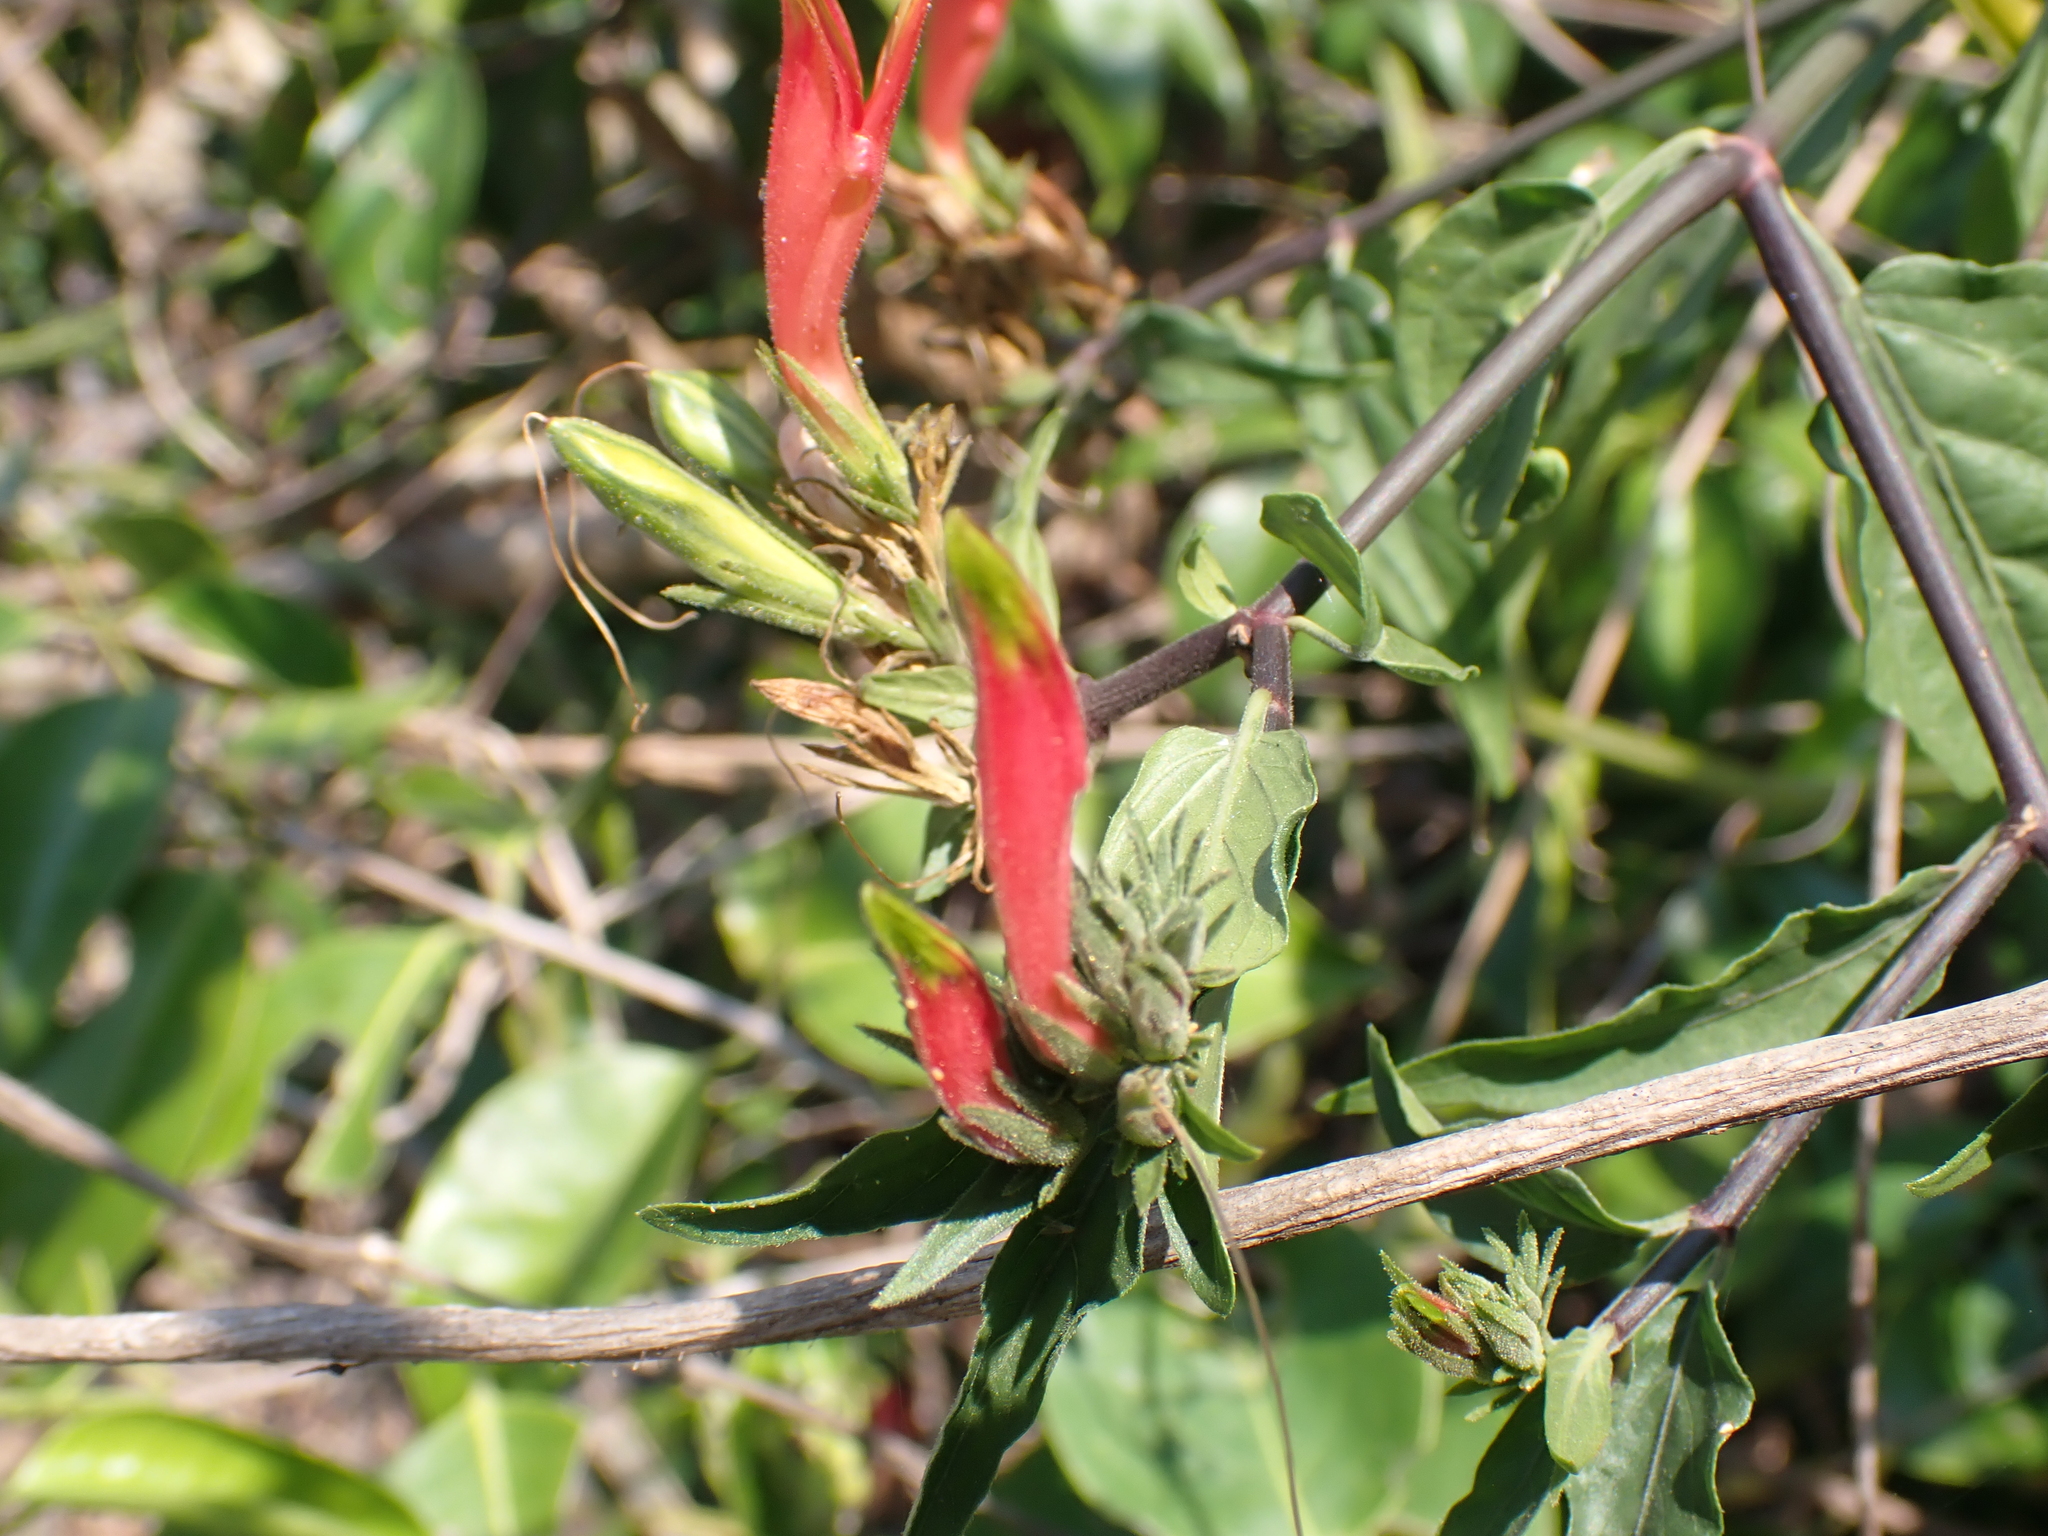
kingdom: Plantae
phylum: Tracheophyta
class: Magnoliopsida
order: Lamiales
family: Acanthaceae
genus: Clinacanthus
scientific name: Clinacanthus nutans
